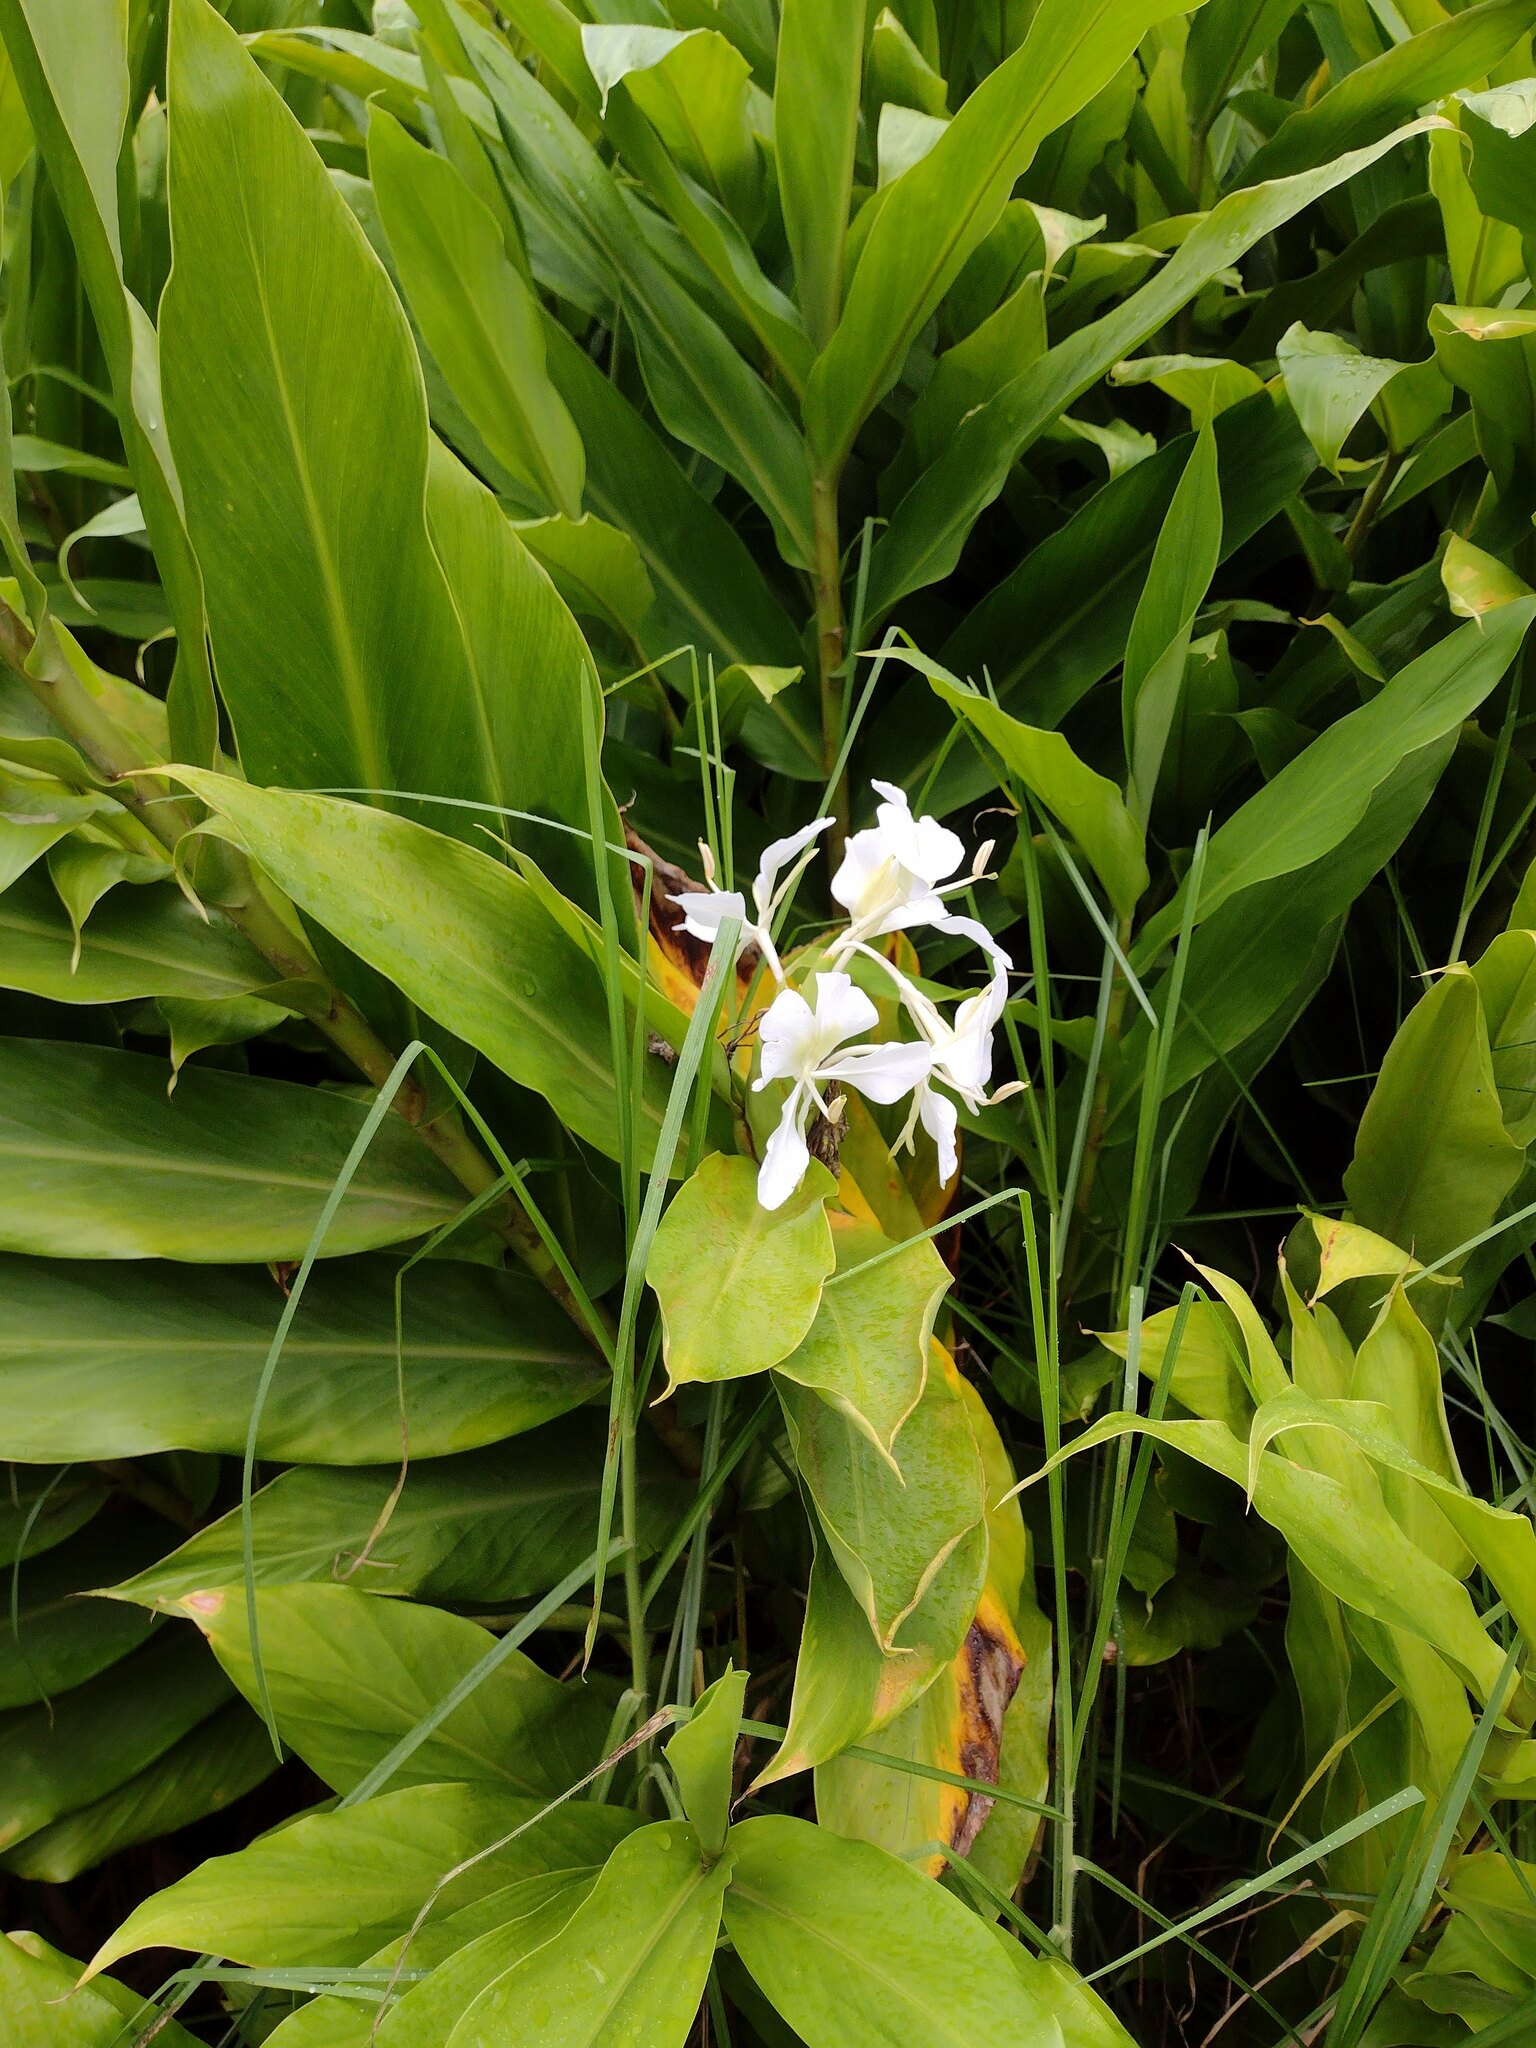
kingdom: Plantae
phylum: Tracheophyta
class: Liliopsida
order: Zingiberales
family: Zingiberaceae
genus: Hedychium
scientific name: Hedychium coronarium
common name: White garland-lily
